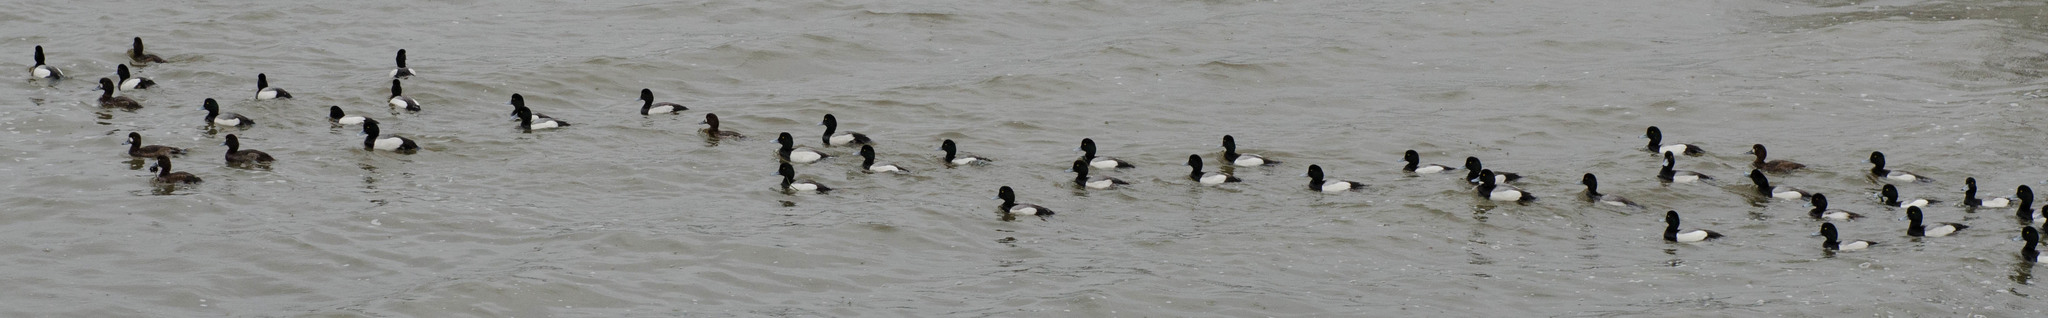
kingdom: Animalia
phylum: Chordata
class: Aves
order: Anseriformes
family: Anatidae
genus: Aythya
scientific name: Aythya marila
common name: Greater scaup
